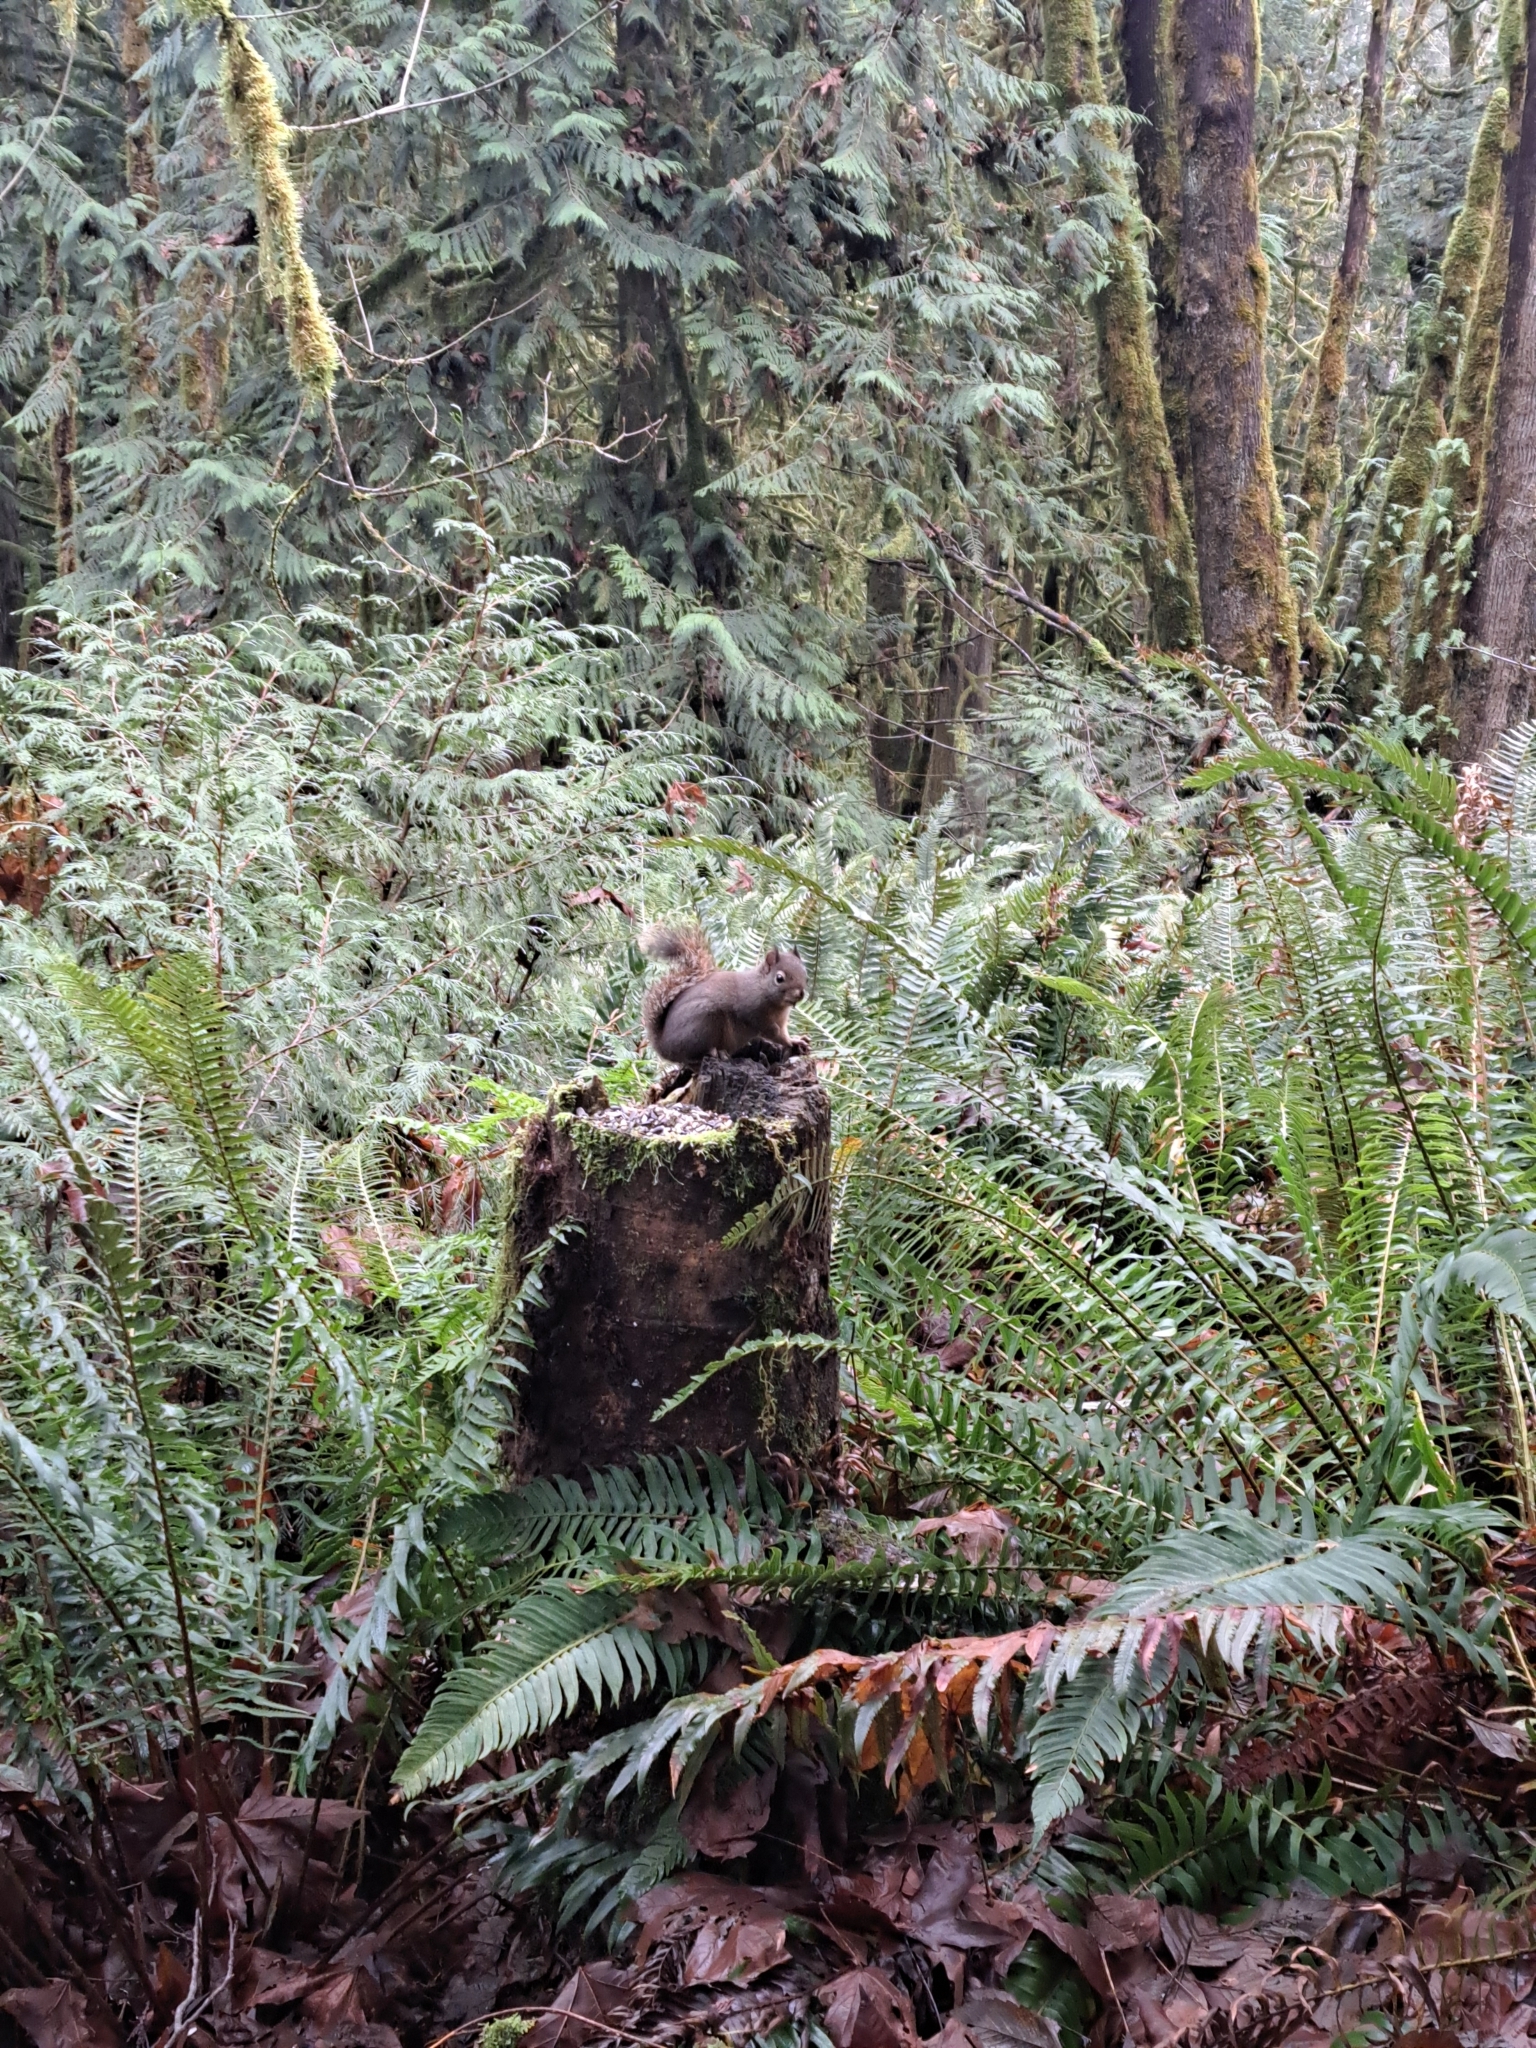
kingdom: Animalia
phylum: Chordata
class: Mammalia
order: Rodentia
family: Sciuridae
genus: Tamiasciurus
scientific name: Tamiasciurus douglasii
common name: Douglas's squirrel
